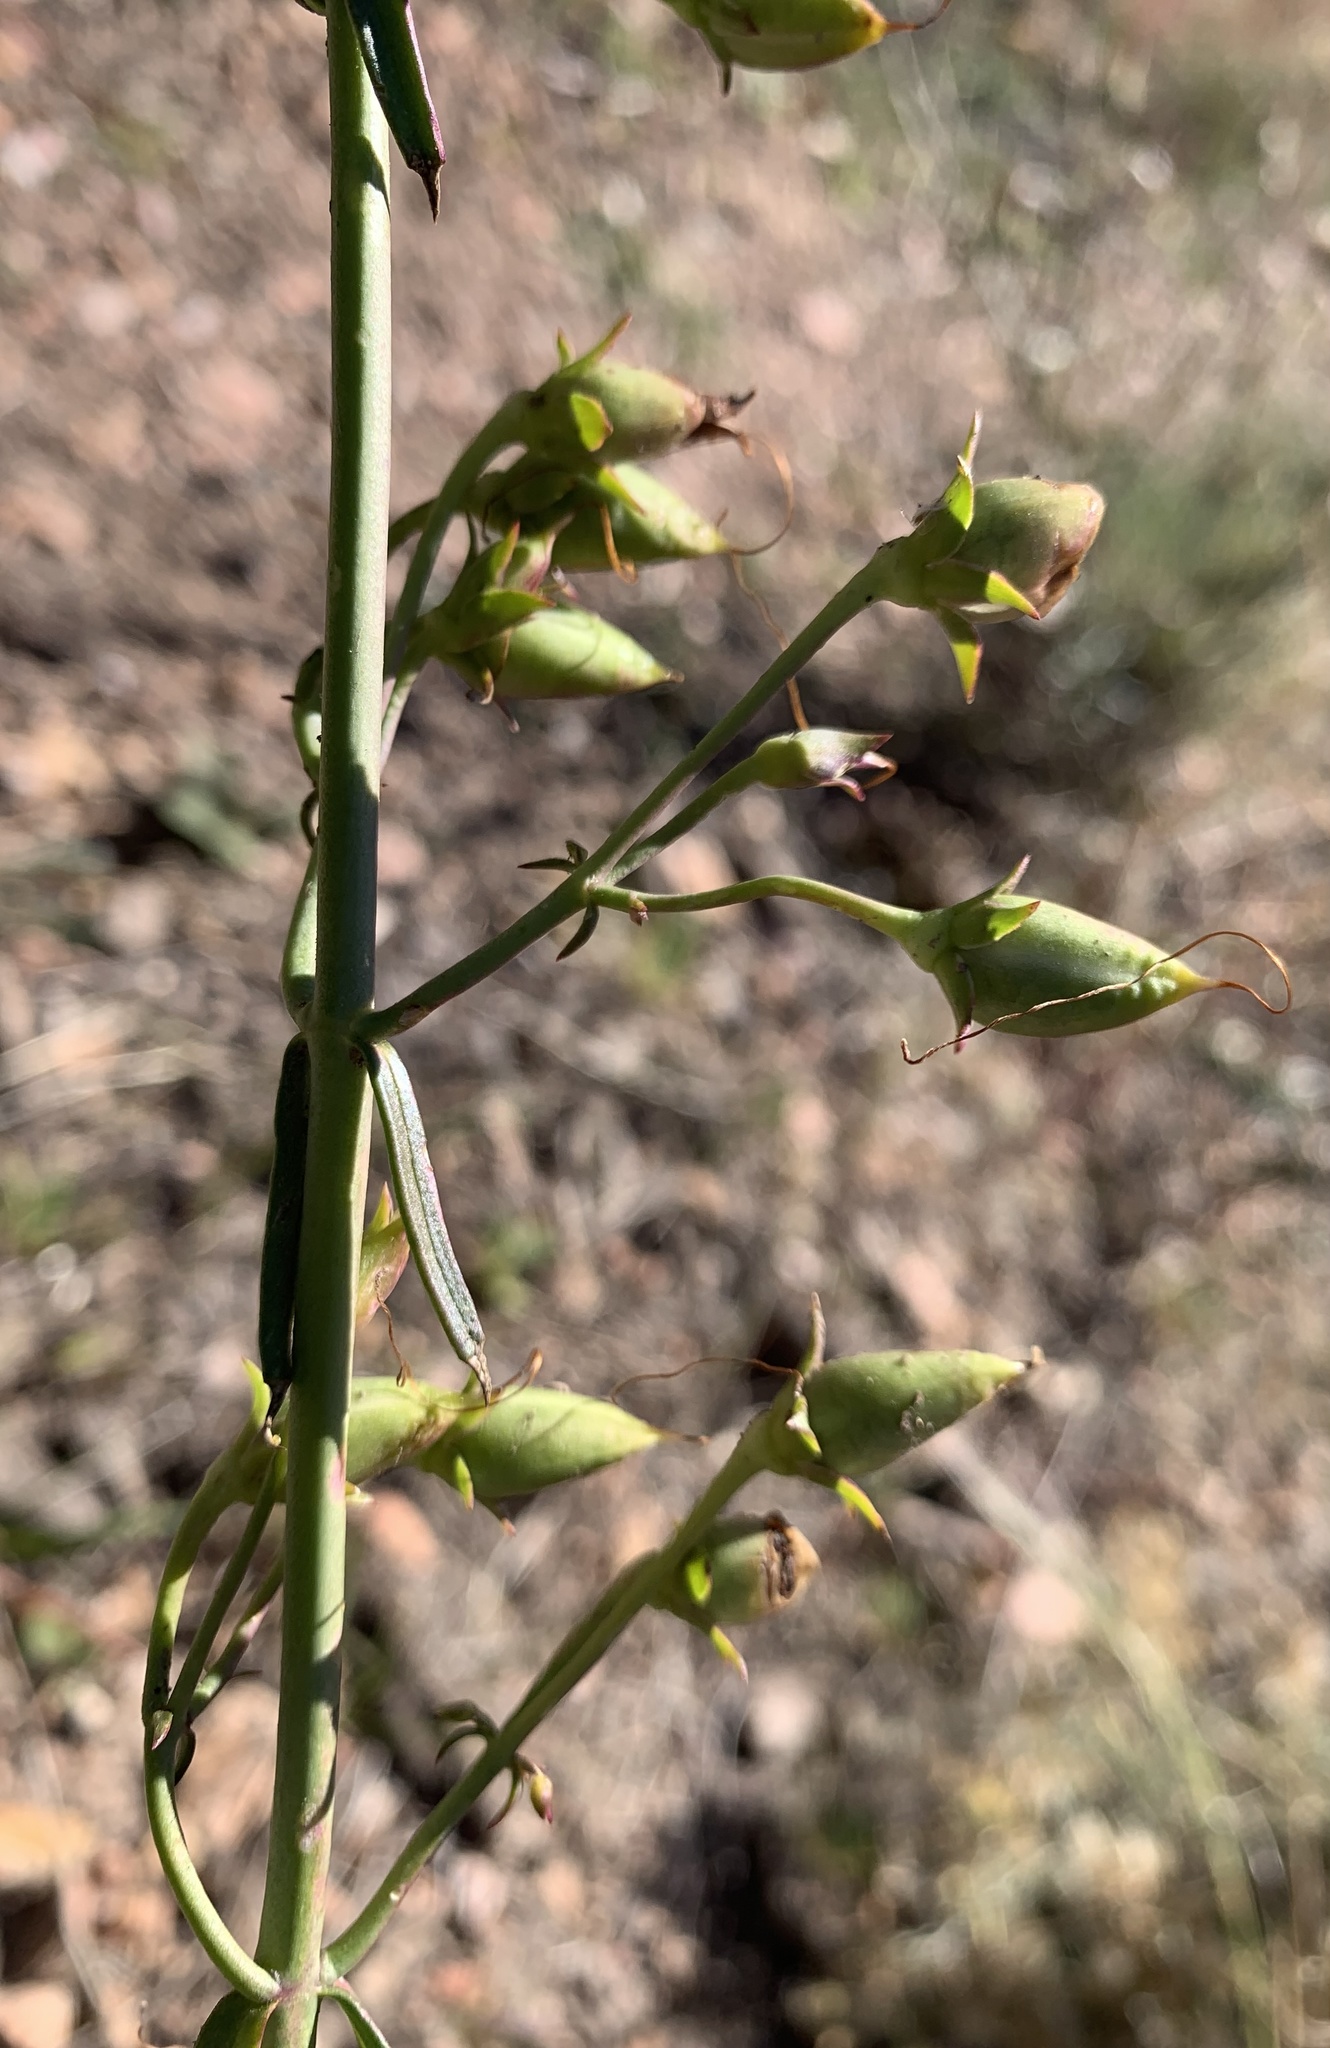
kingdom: Plantae
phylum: Tracheophyta
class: Magnoliopsida
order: Lamiales
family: Plantaginaceae
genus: Penstemon
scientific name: Penstemon barbatus
